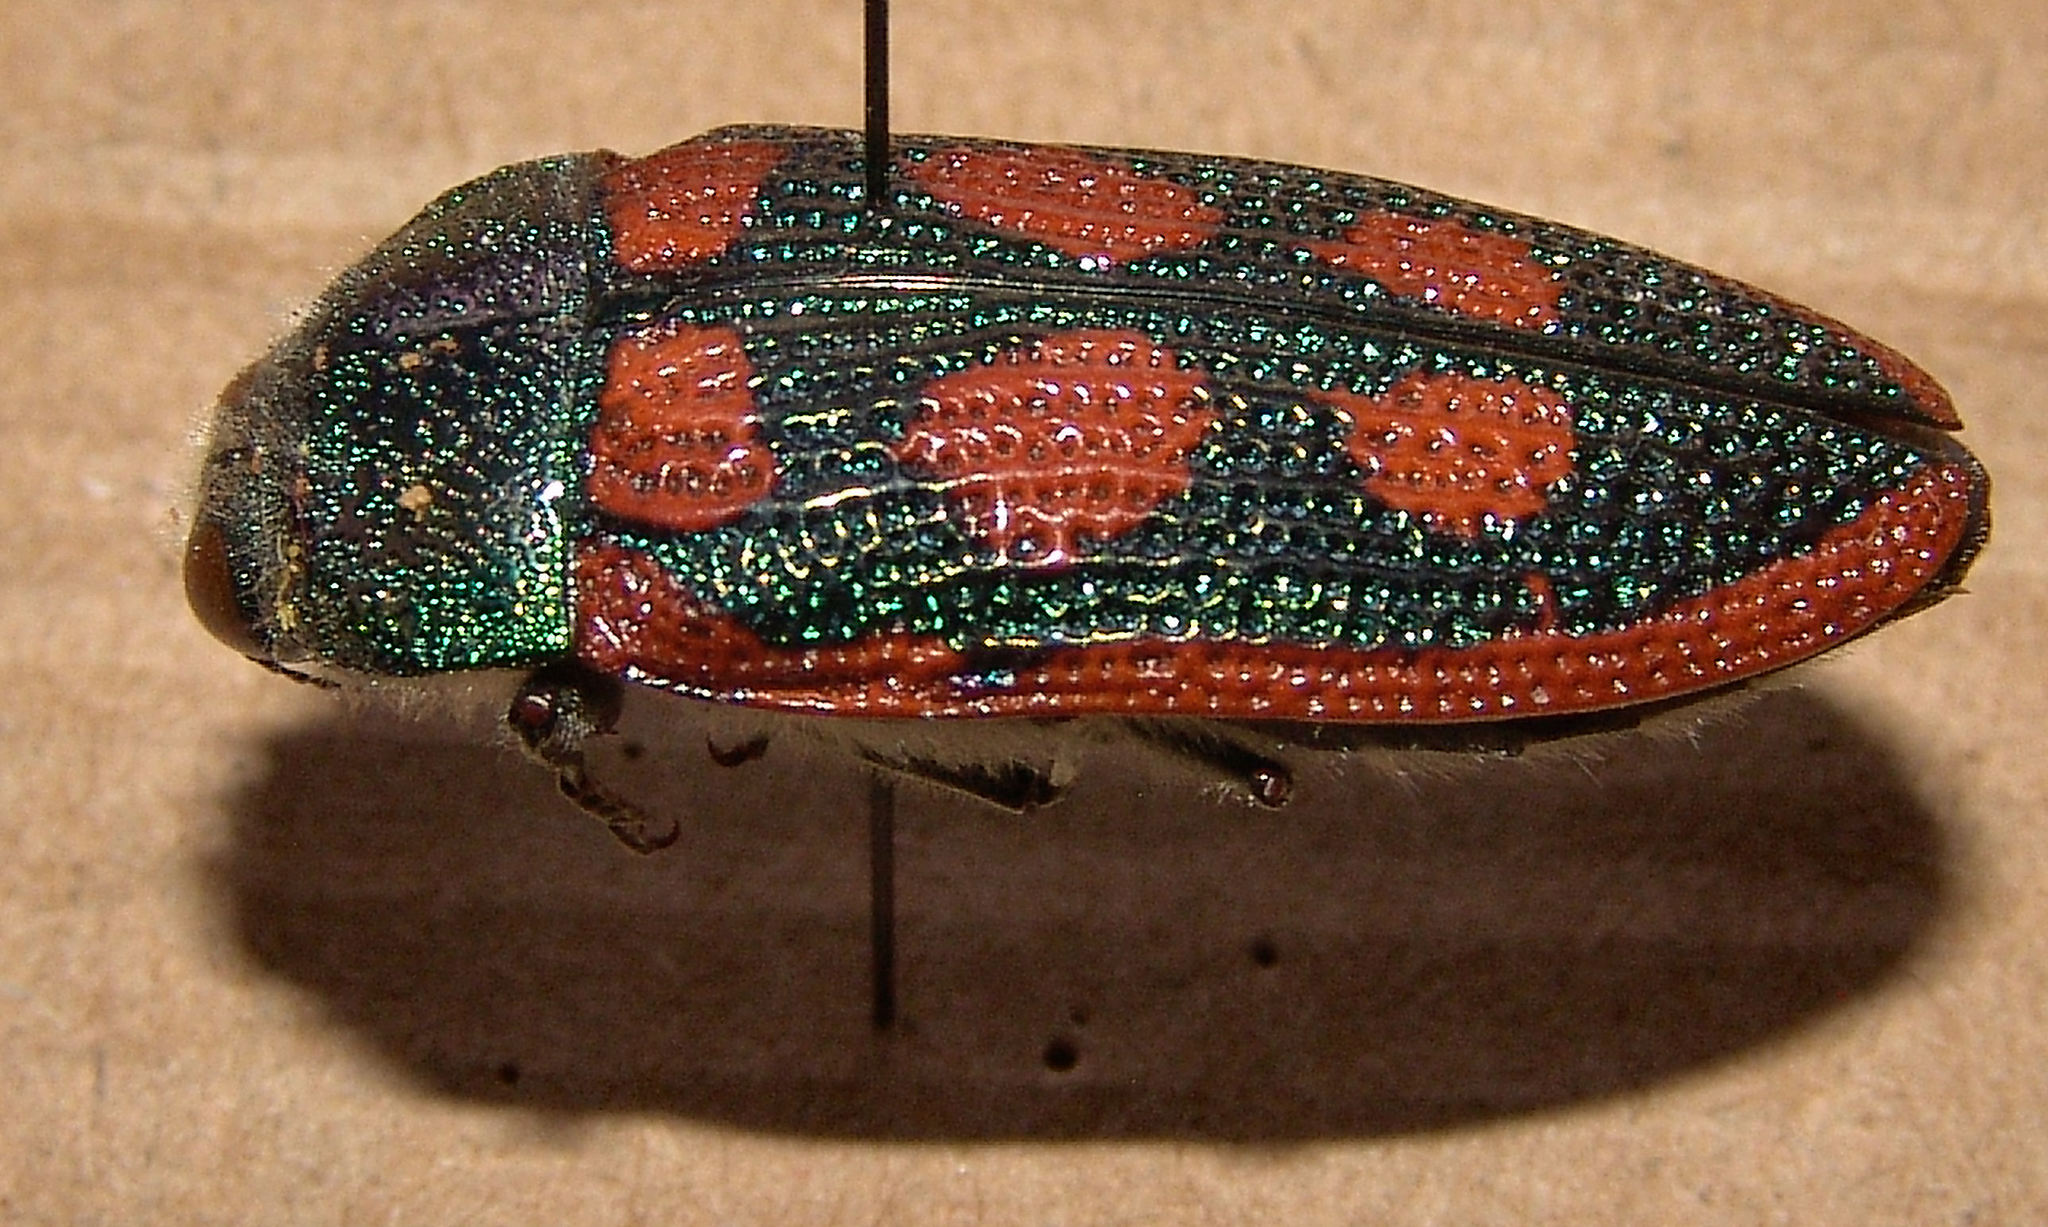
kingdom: Animalia
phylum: Arthropoda
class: Insecta
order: Coleoptera
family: Buprestidae
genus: Stigmodera
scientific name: Stigmodera cancellata
